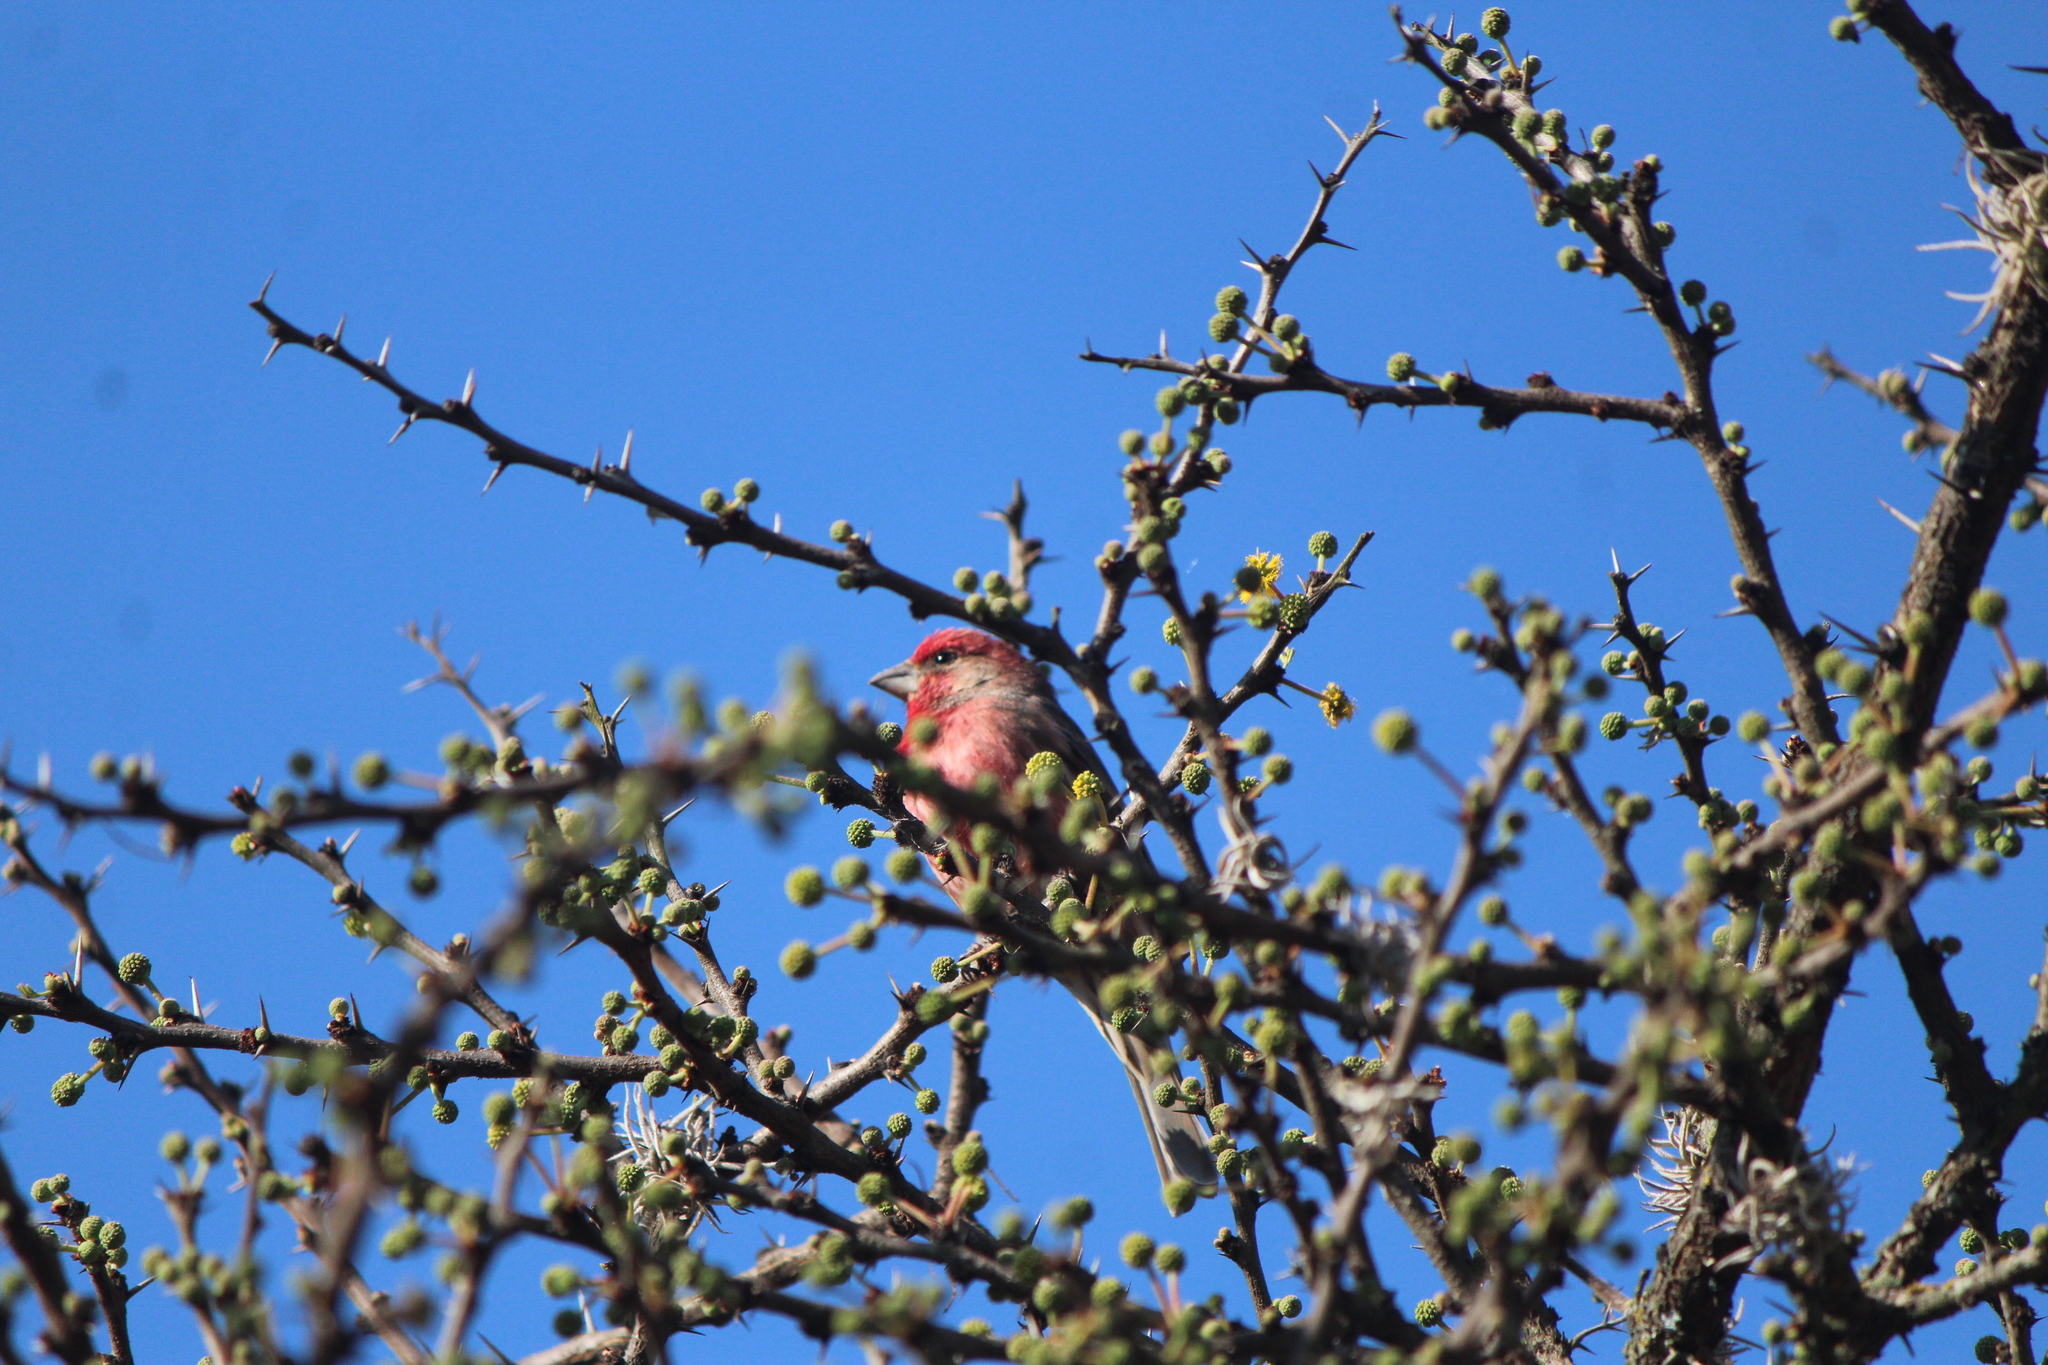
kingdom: Animalia
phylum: Chordata
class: Aves
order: Passeriformes
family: Fringillidae
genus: Haemorhous
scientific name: Haemorhous mexicanus
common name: House finch
